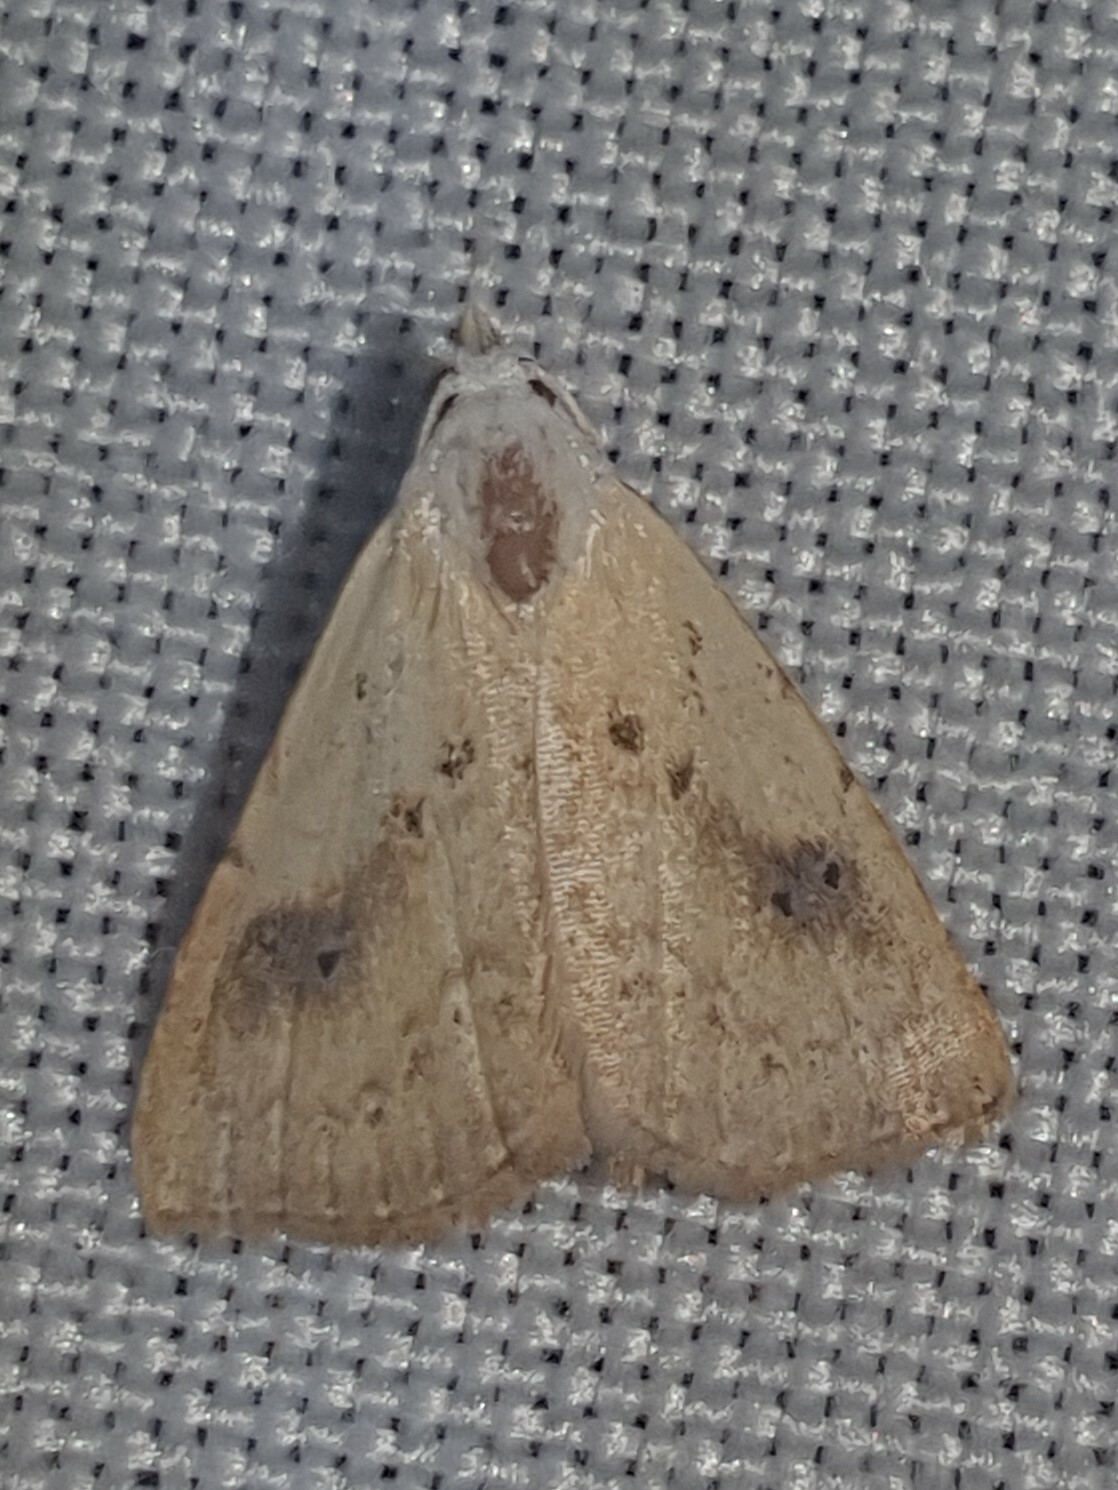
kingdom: Animalia
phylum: Arthropoda
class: Insecta
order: Lepidoptera
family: Erebidae
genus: Rivula
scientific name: Rivula sericealis
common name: Straw dot
